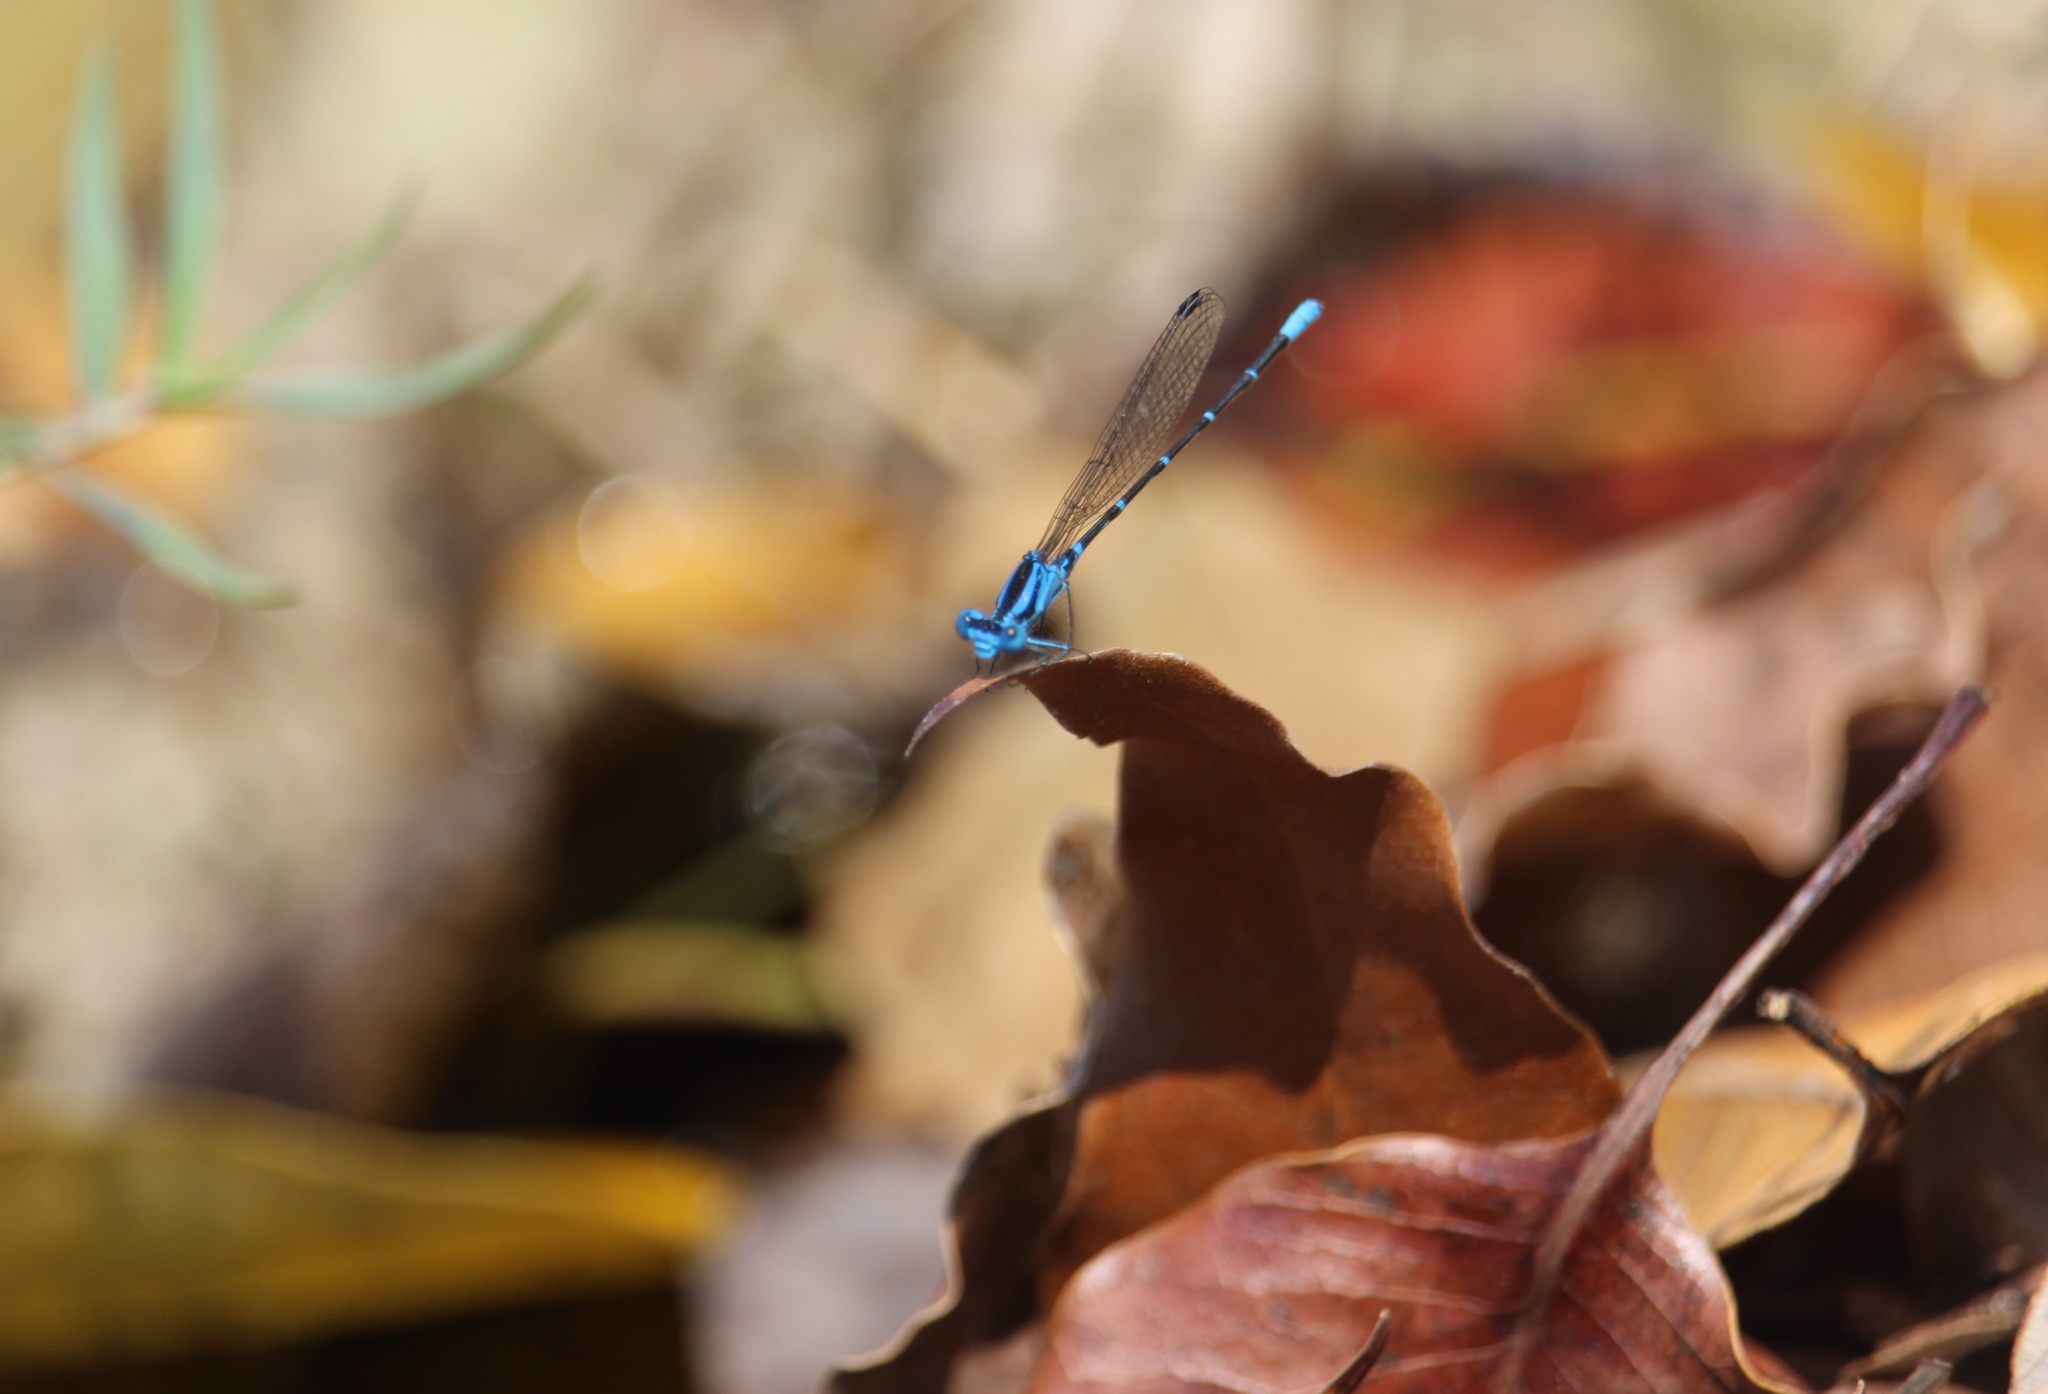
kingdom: Animalia
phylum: Arthropoda
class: Insecta
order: Odonata
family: Coenagrionidae
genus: Argia
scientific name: Argia gaumeri
